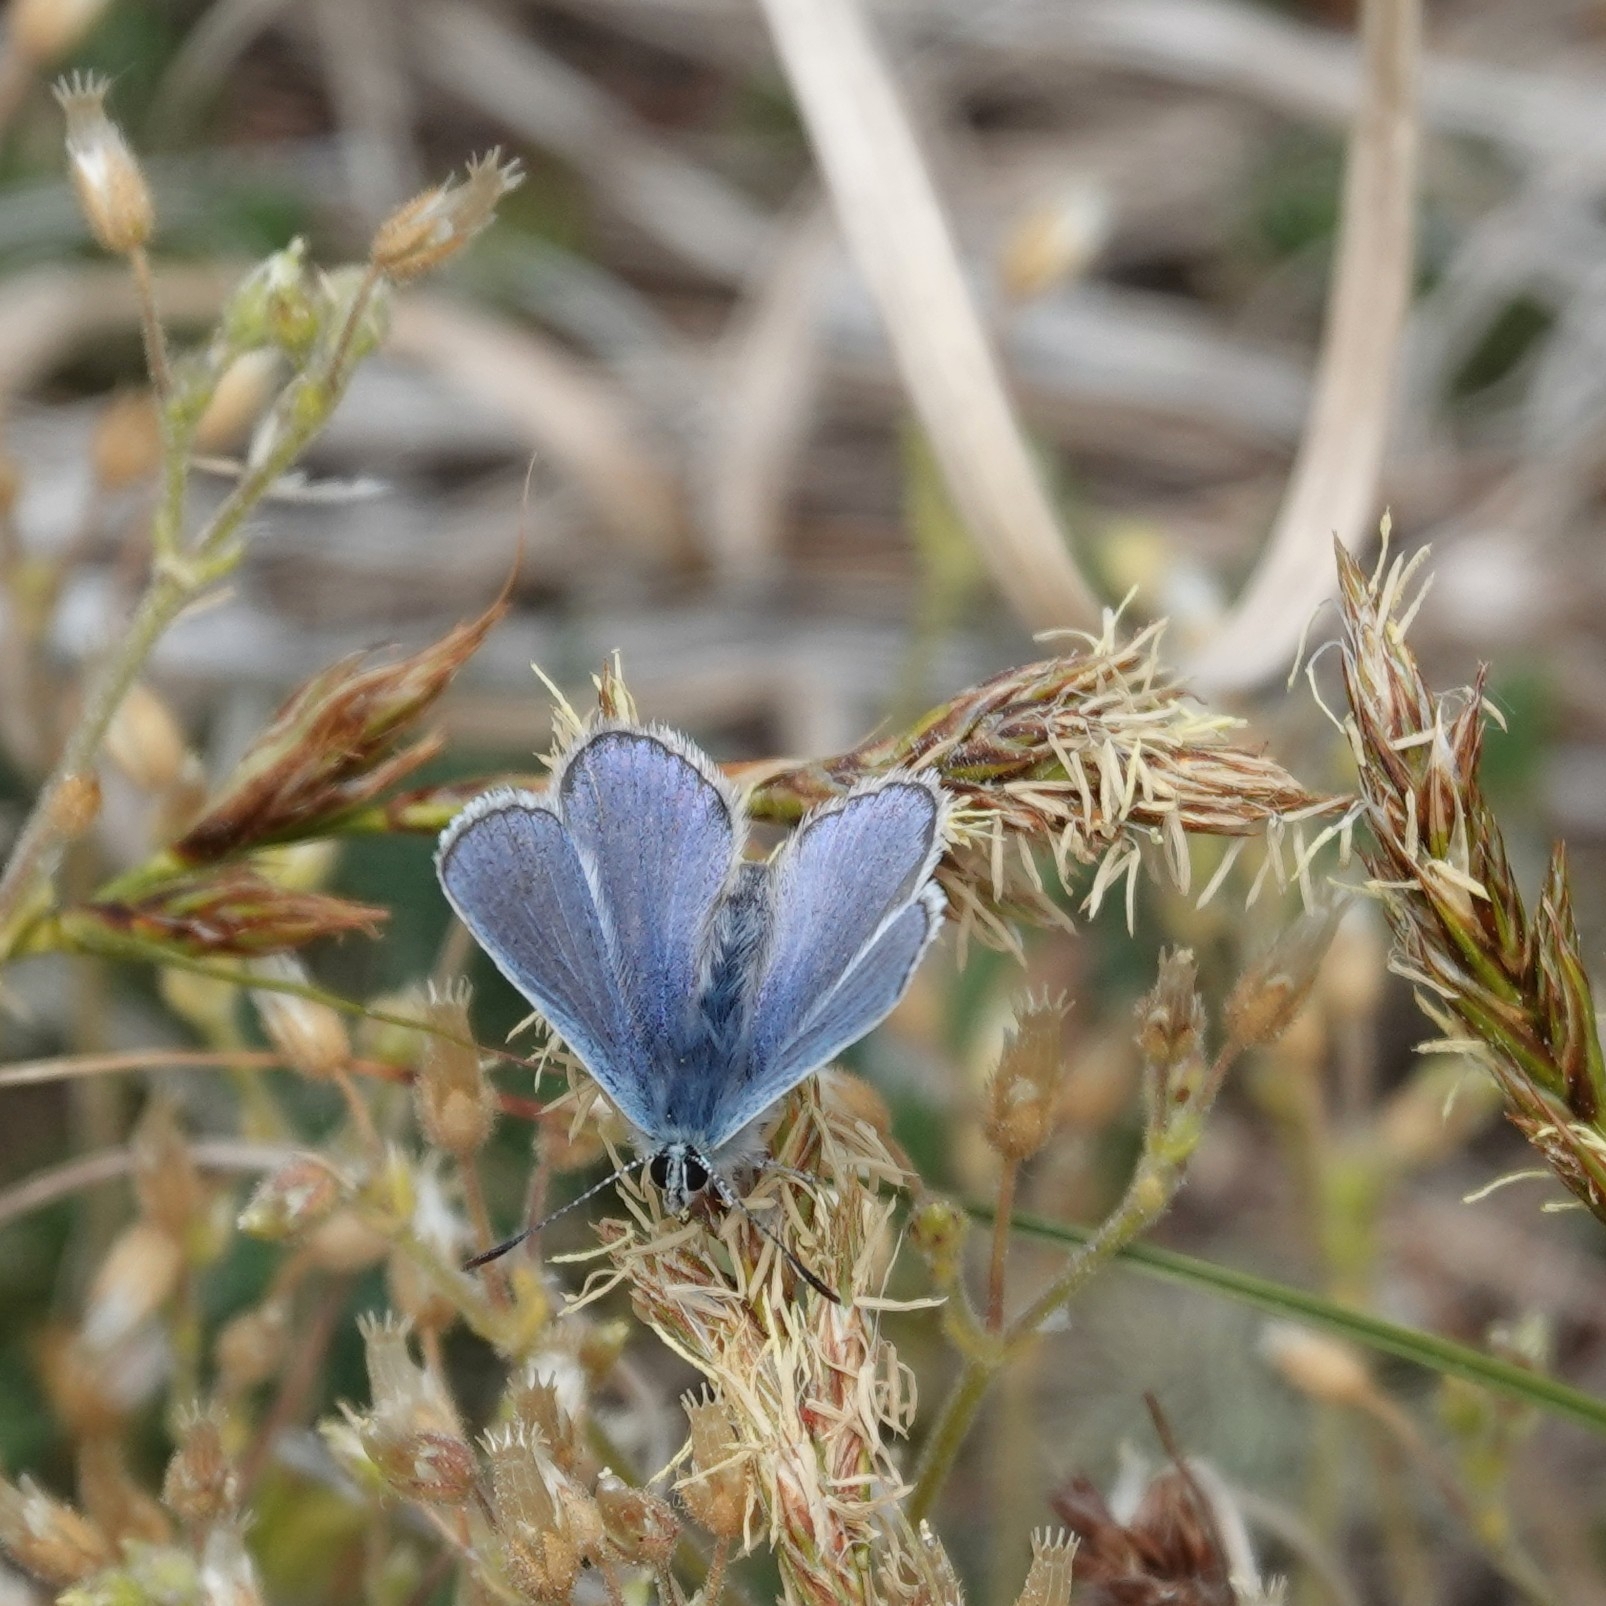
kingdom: Animalia
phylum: Arthropoda
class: Insecta
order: Lepidoptera
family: Lycaenidae
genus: Polyommatus
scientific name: Polyommatus icarus
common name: Common blue
